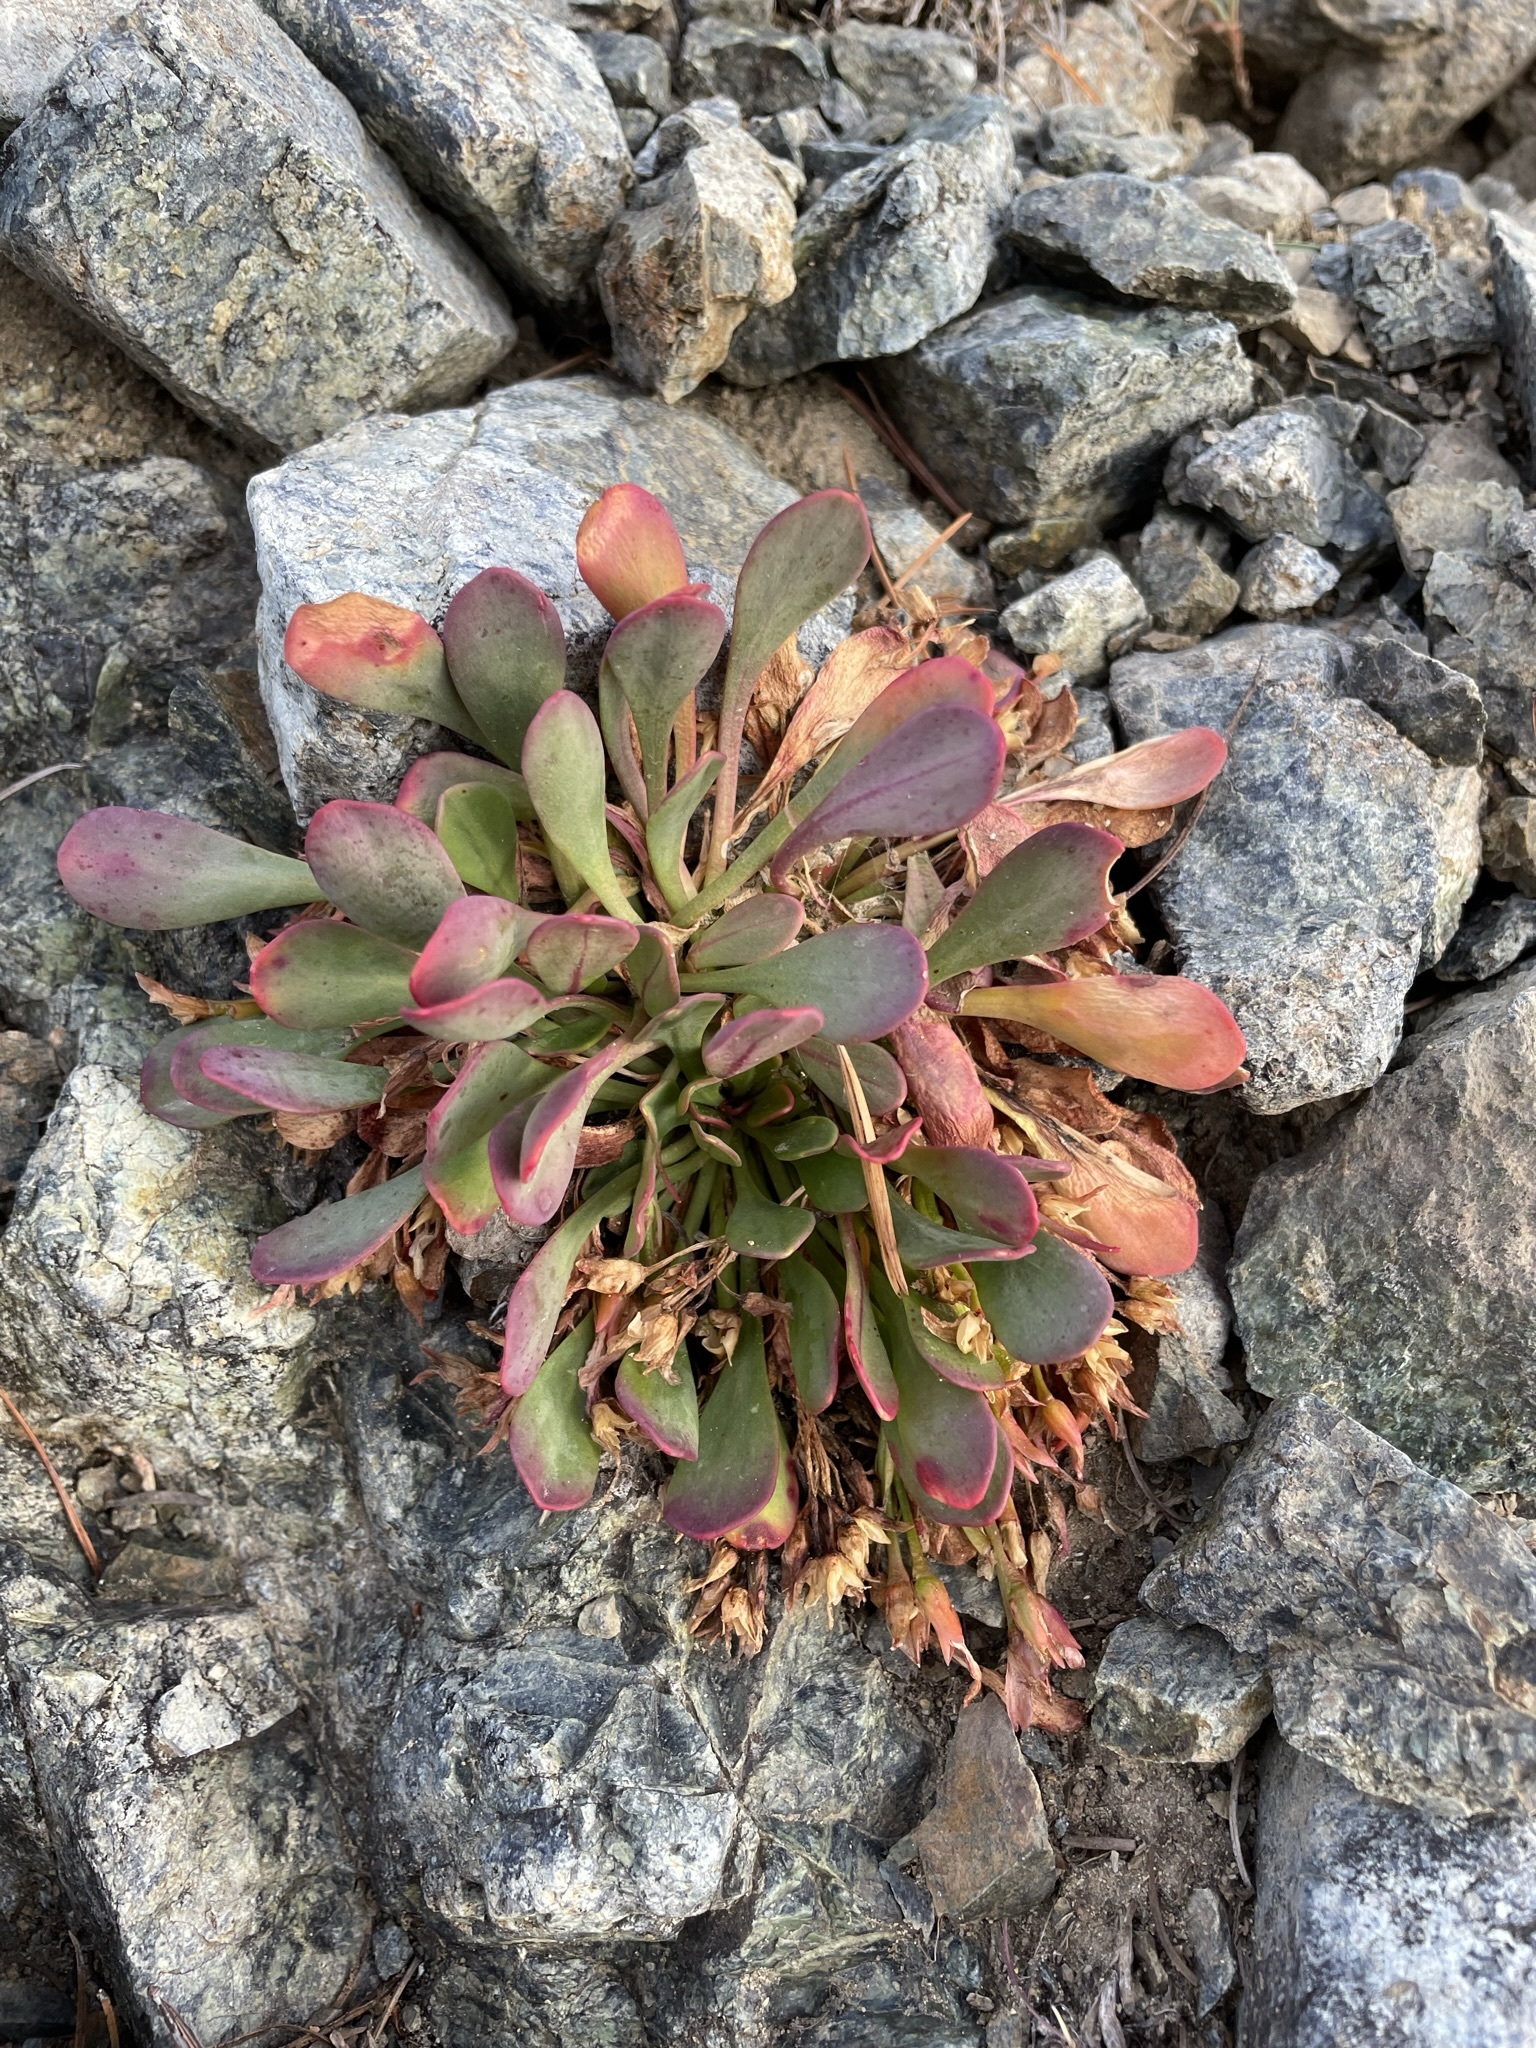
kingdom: Plantae
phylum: Tracheophyta
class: Magnoliopsida
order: Caryophyllales
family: Montiaceae
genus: Claytonia
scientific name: Claytonia megarhiza
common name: Alpine spring beauty
